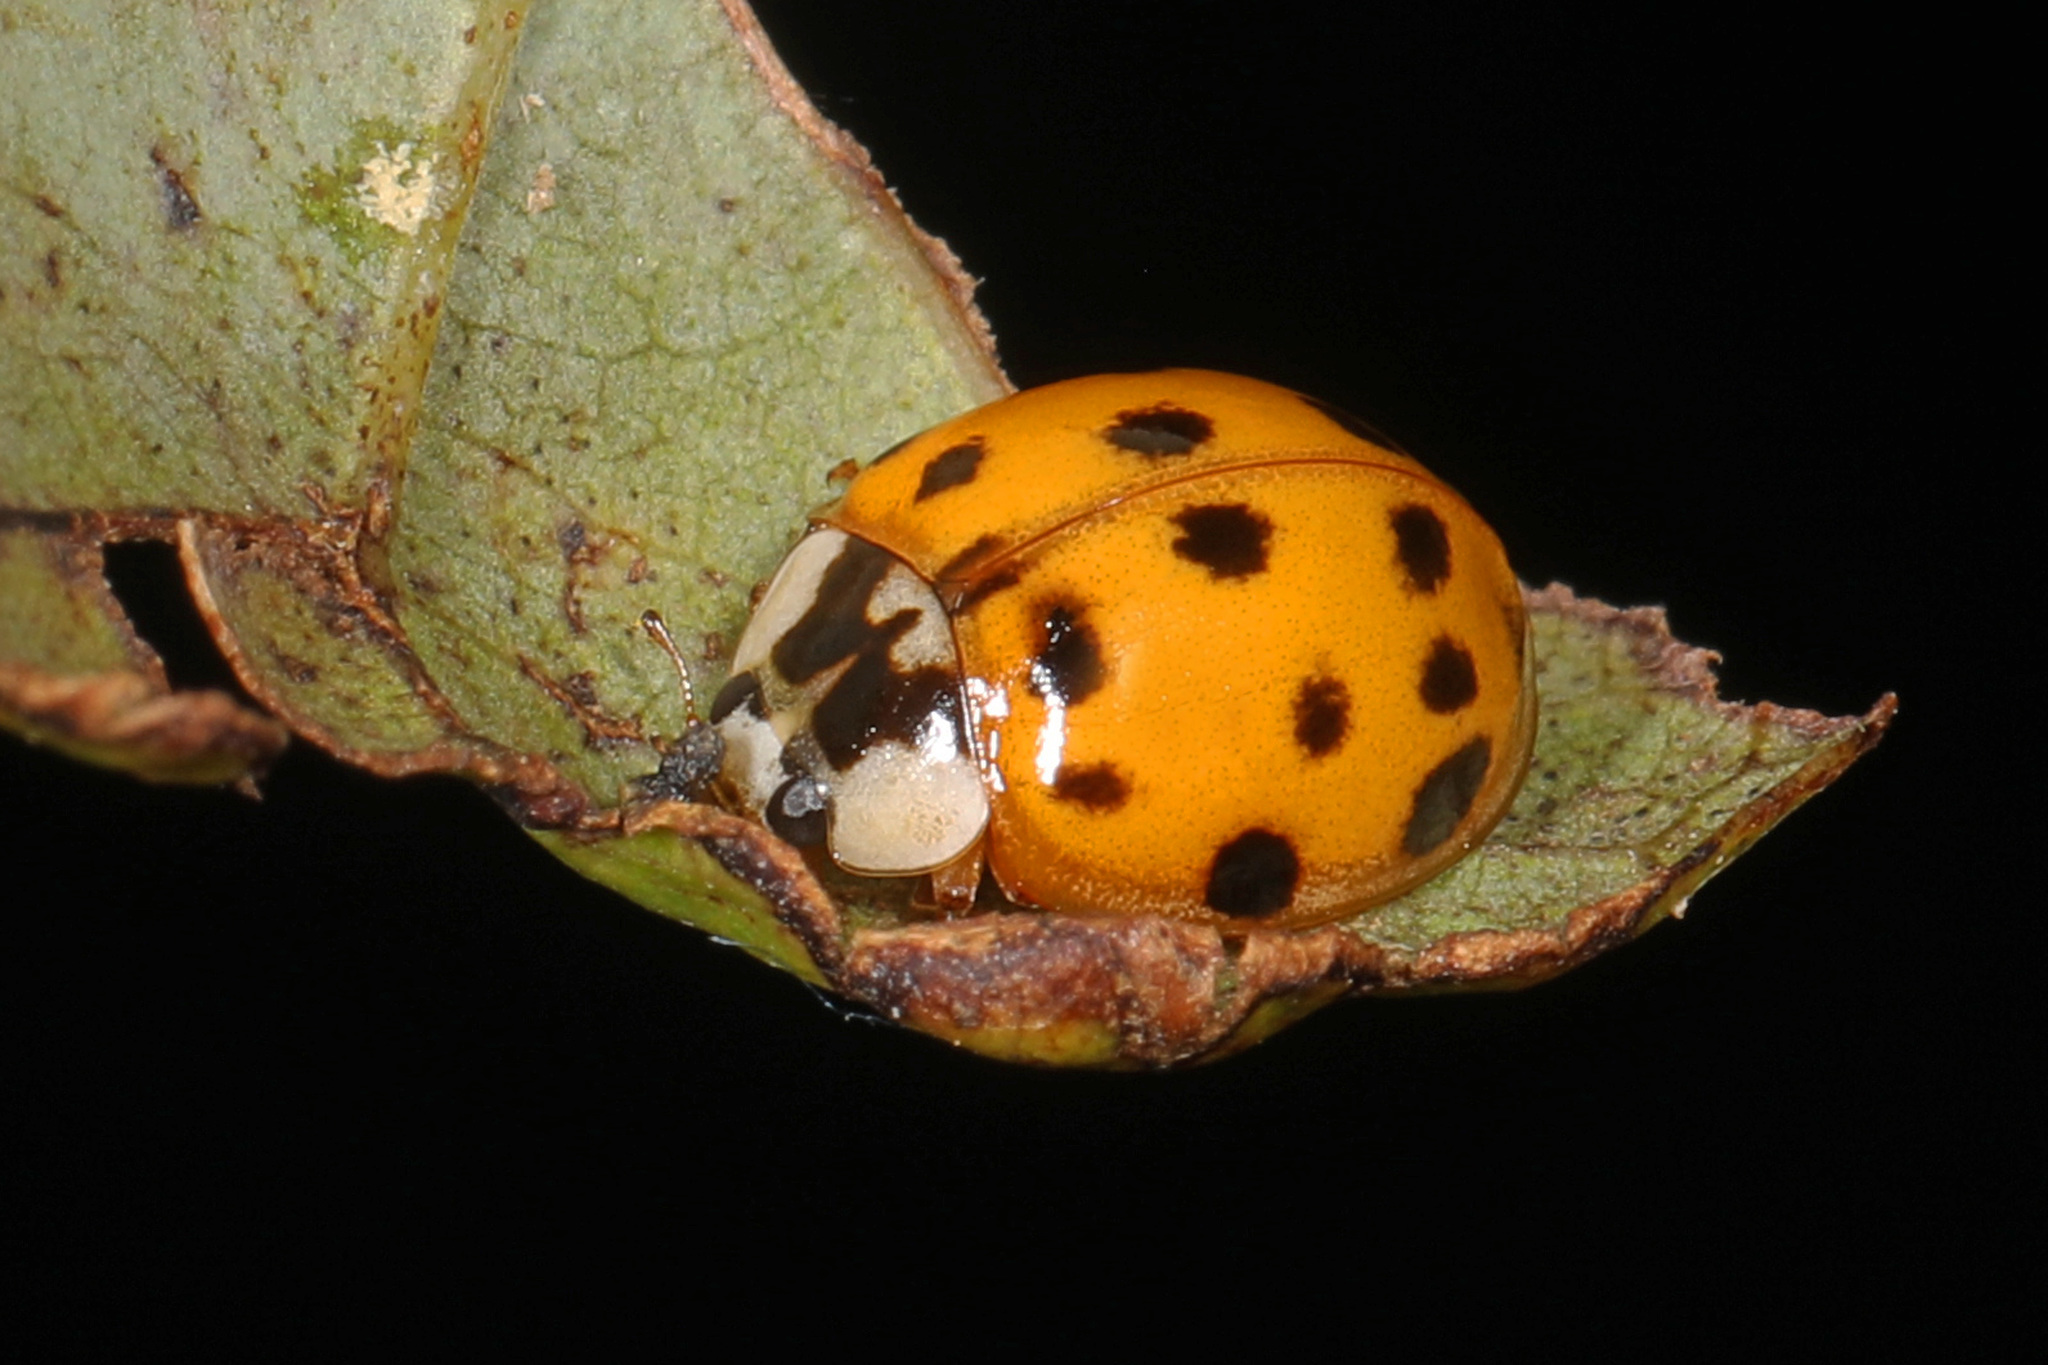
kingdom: Animalia
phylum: Arthropoda
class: Insecta
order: Coleoptera
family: Coccinellidae
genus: Harmonia
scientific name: Harmonia axyridis
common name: Harlequin ladybird
